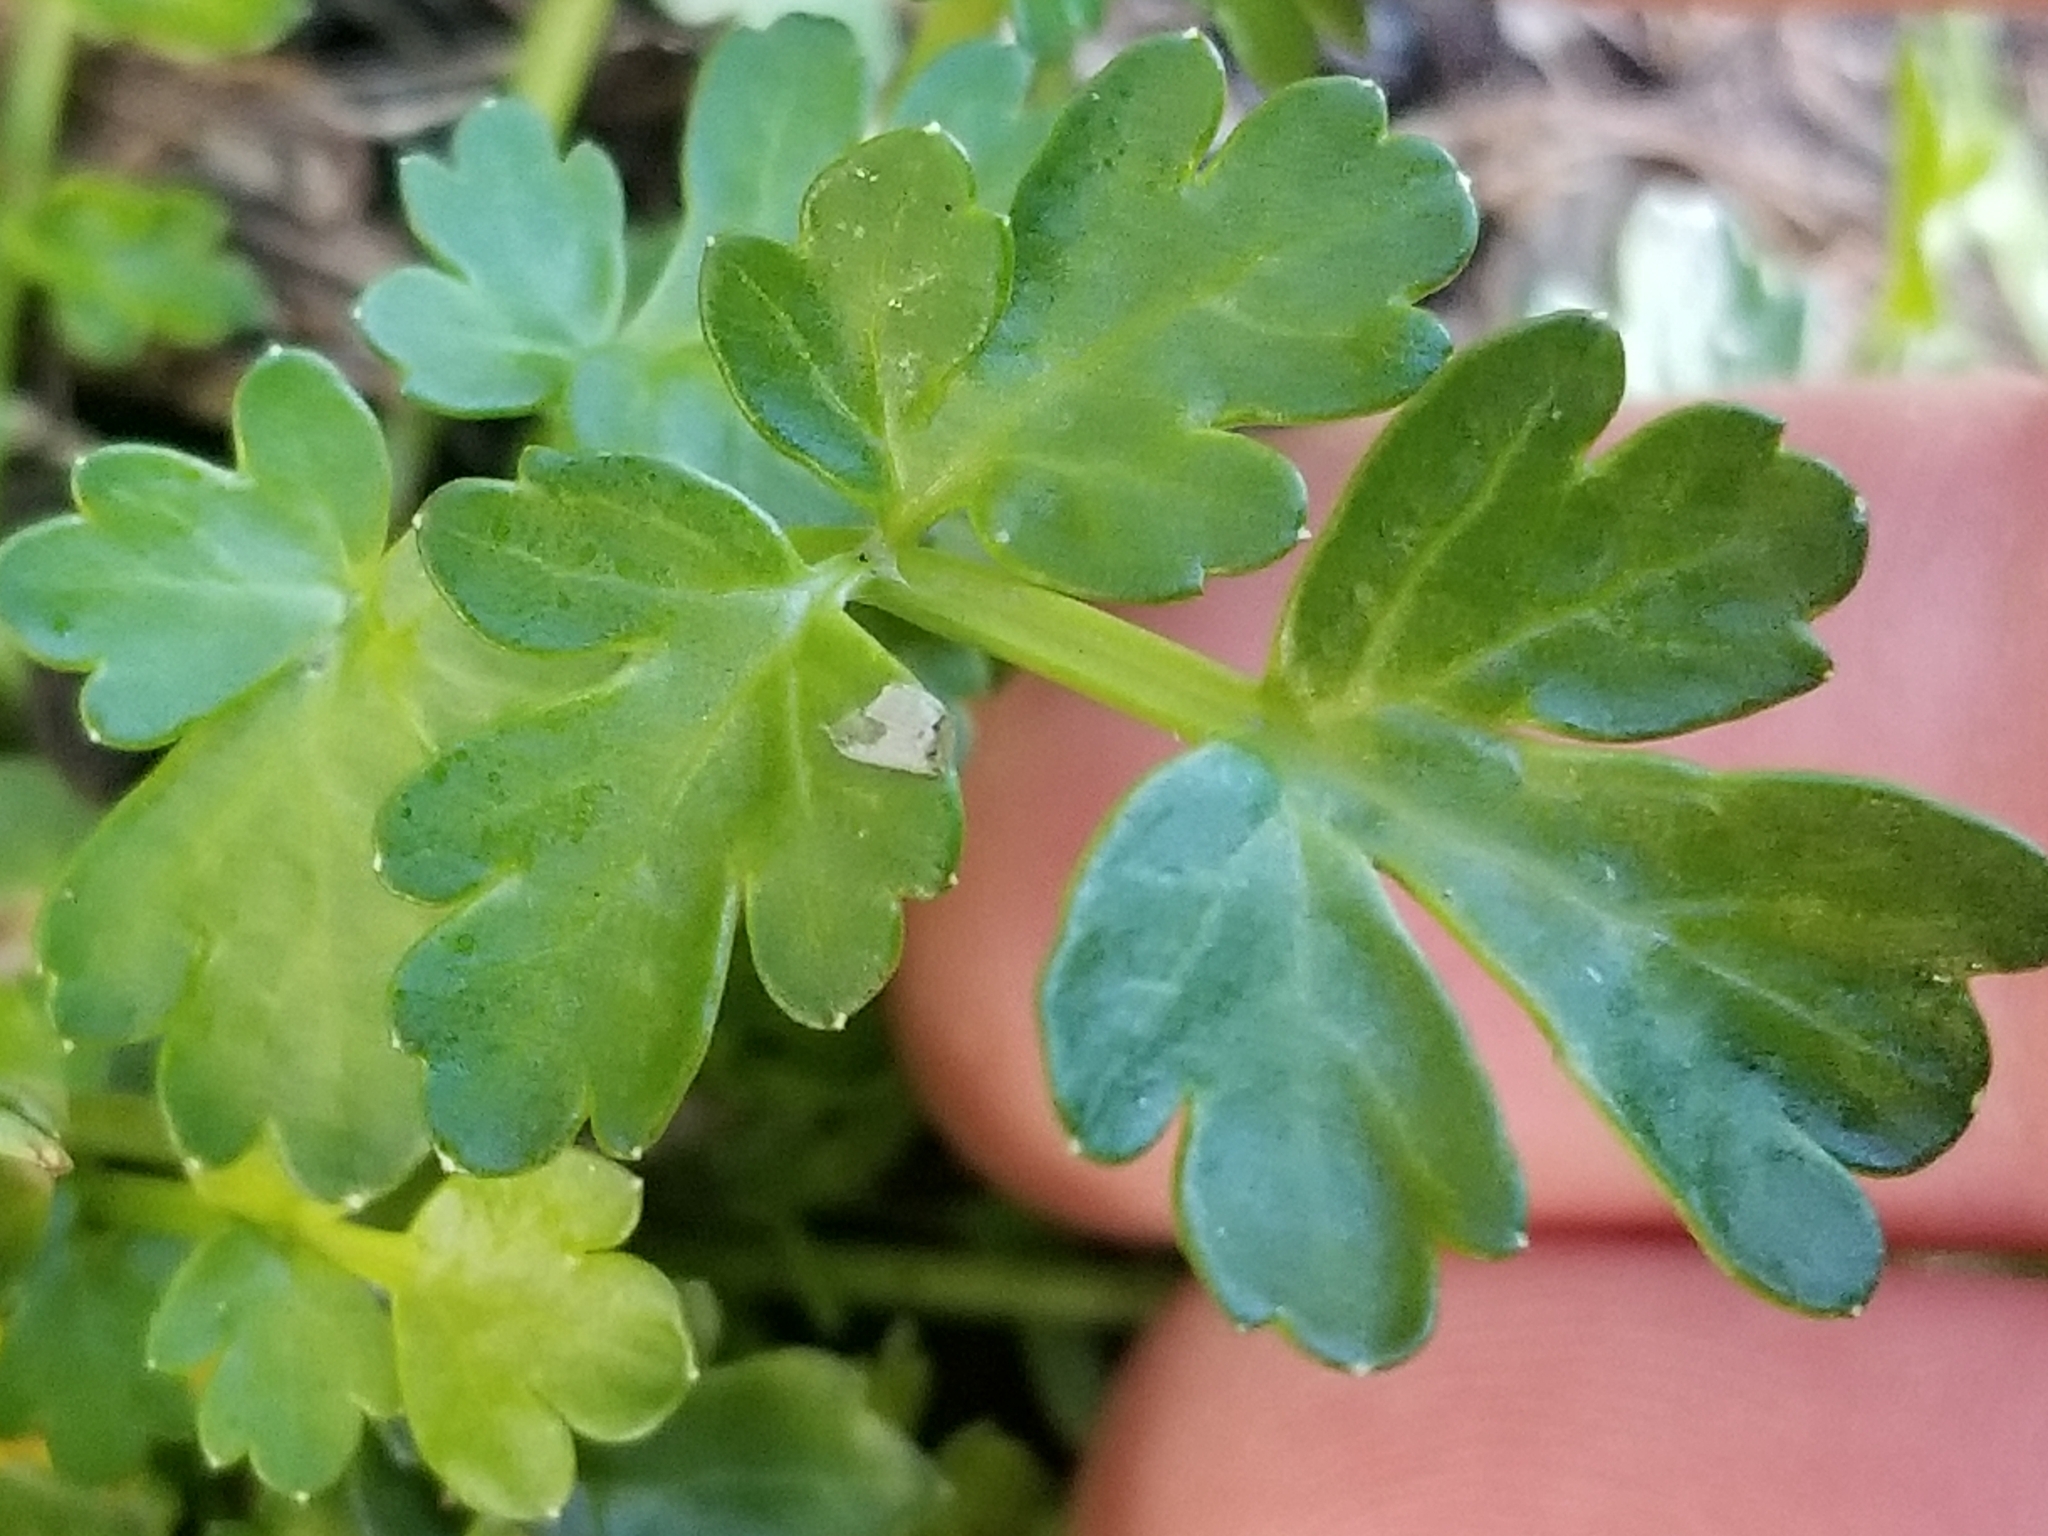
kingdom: Plantae
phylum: Tracheophyta
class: Magnoliopsida
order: Apiales
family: Apiaceae
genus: Apium
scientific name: Apium prostratum
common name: Prostrate marshwort
